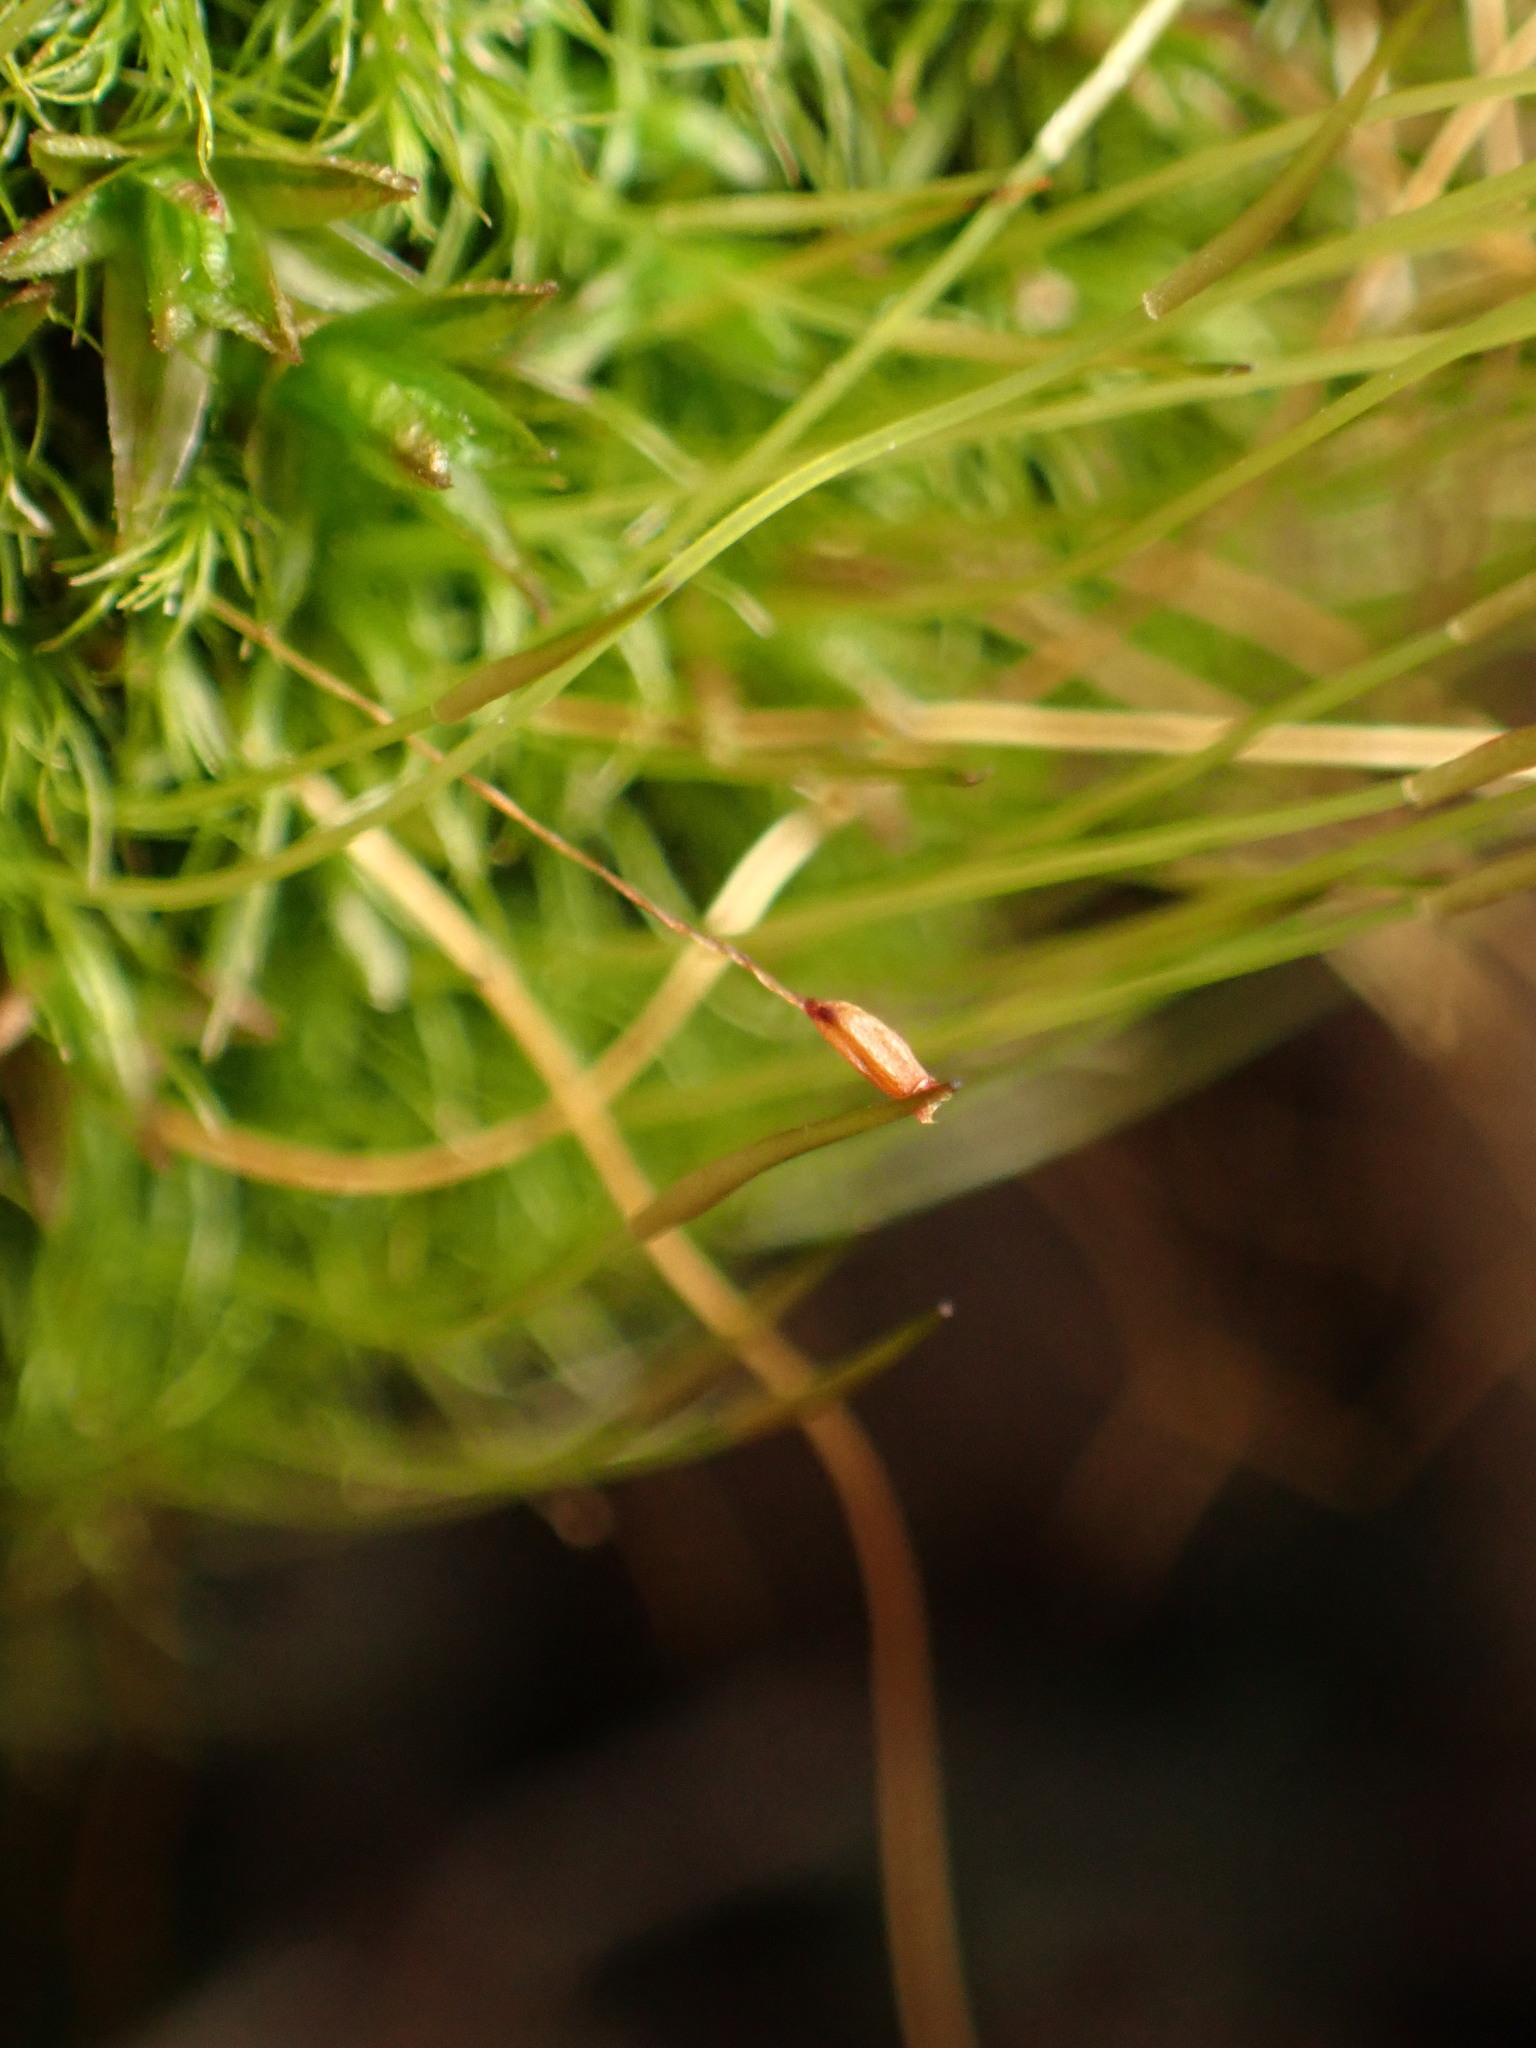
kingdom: Plantae
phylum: Bryophyta
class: Bryopsida
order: Dicranales
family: Ditrichaceae
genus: Ditrichum
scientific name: Ditrichum pallidum
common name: Pale cow-hair moss
